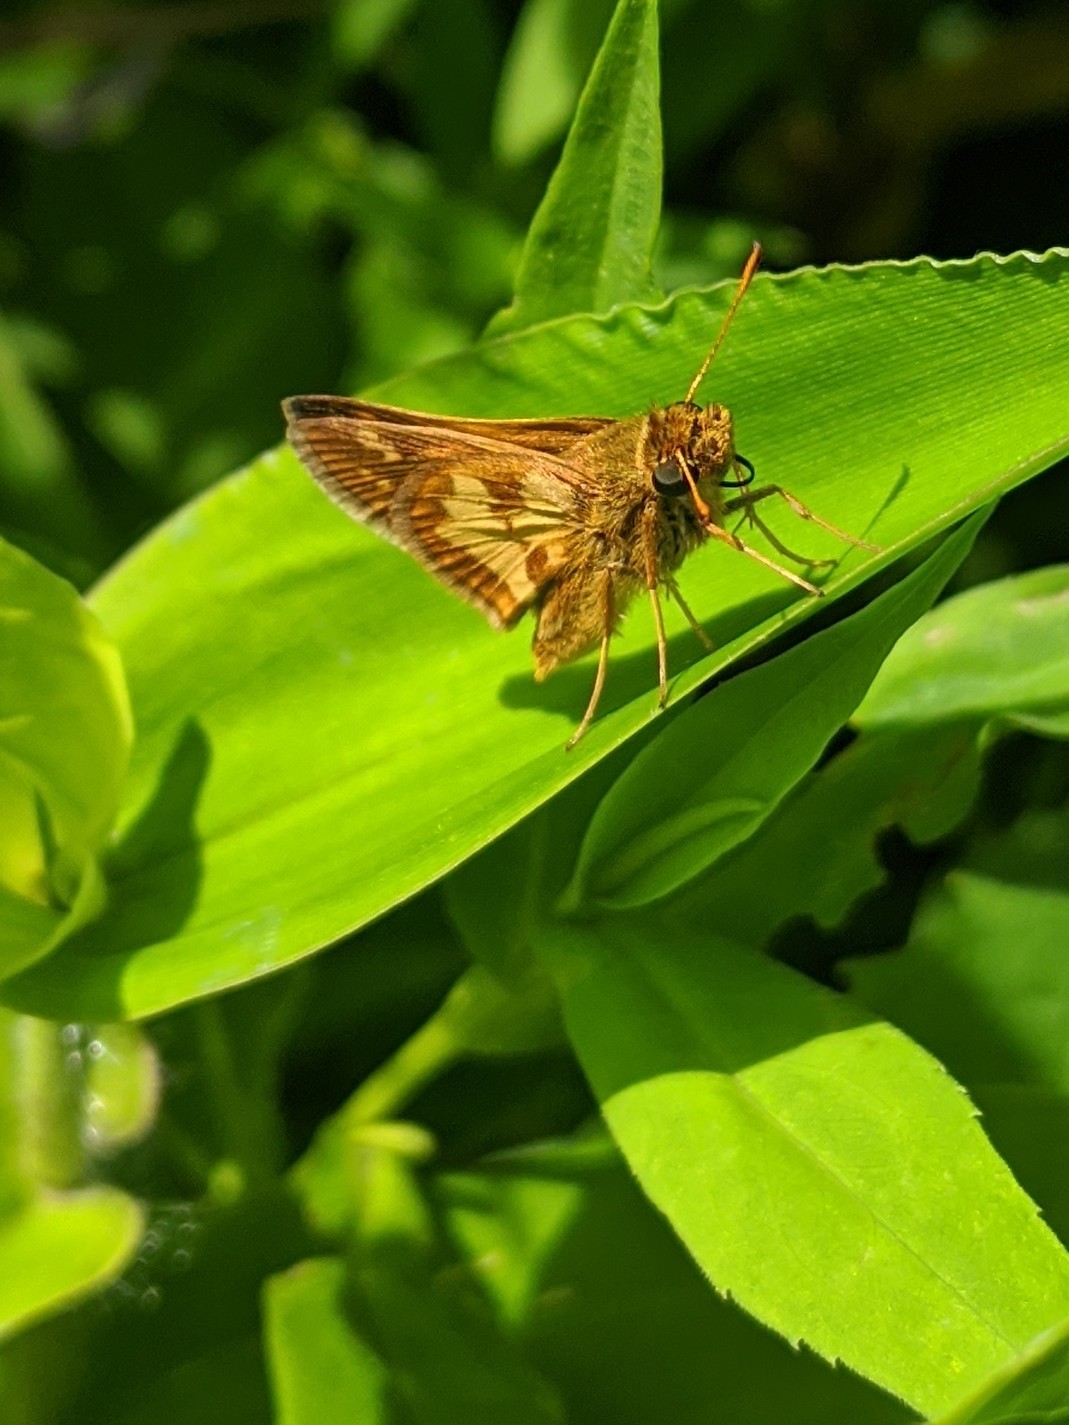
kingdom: Animalia
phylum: Arthropoda
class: Insecta
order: Lepidoptera
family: Hesperiidae
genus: Polites
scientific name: Polites coras
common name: Peck's skipper
